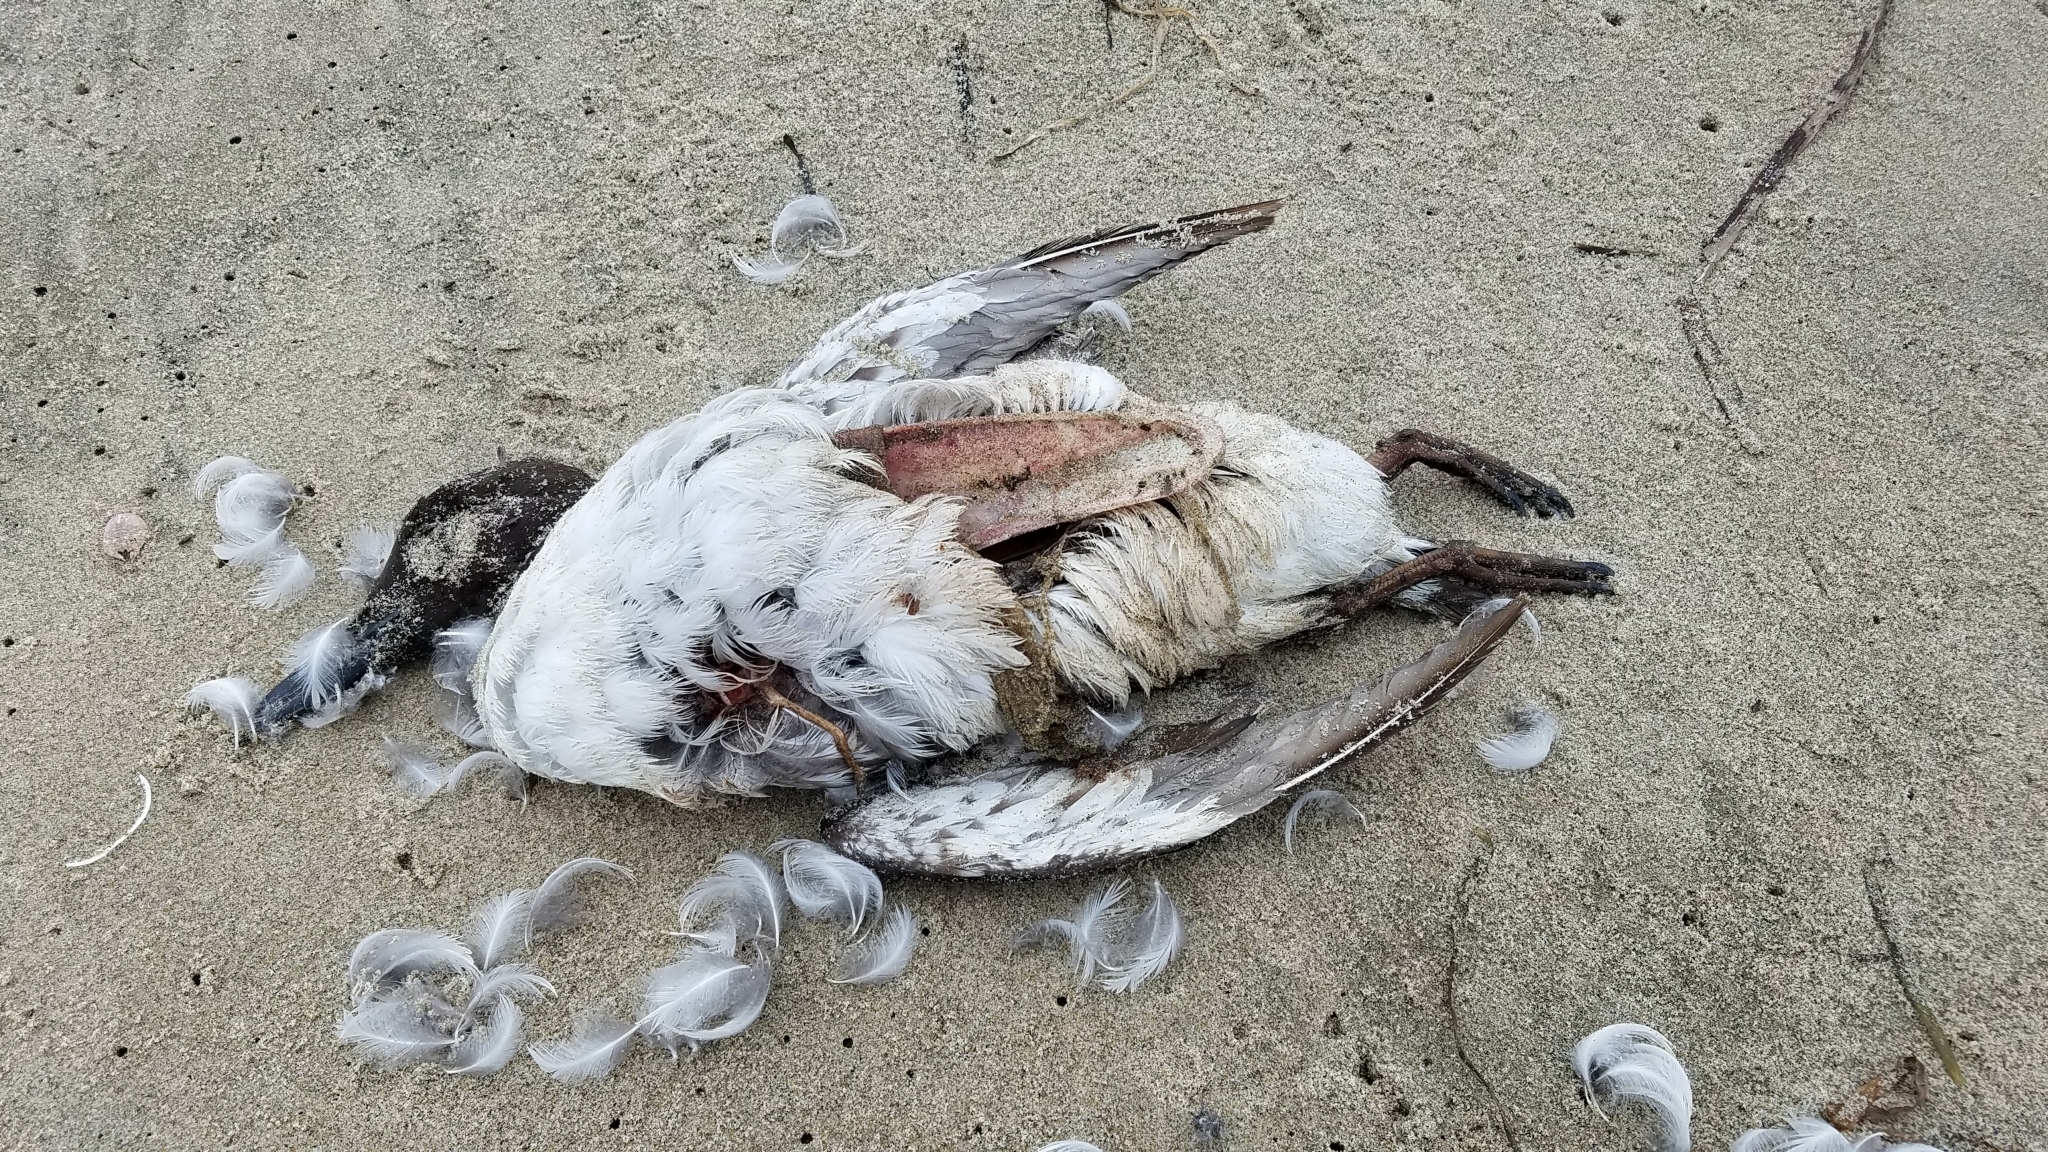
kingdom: Animalia
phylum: Chordata
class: Aves
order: Charadriiformes
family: Alcidae
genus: Uria
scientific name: Uria aalge
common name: Common murre
